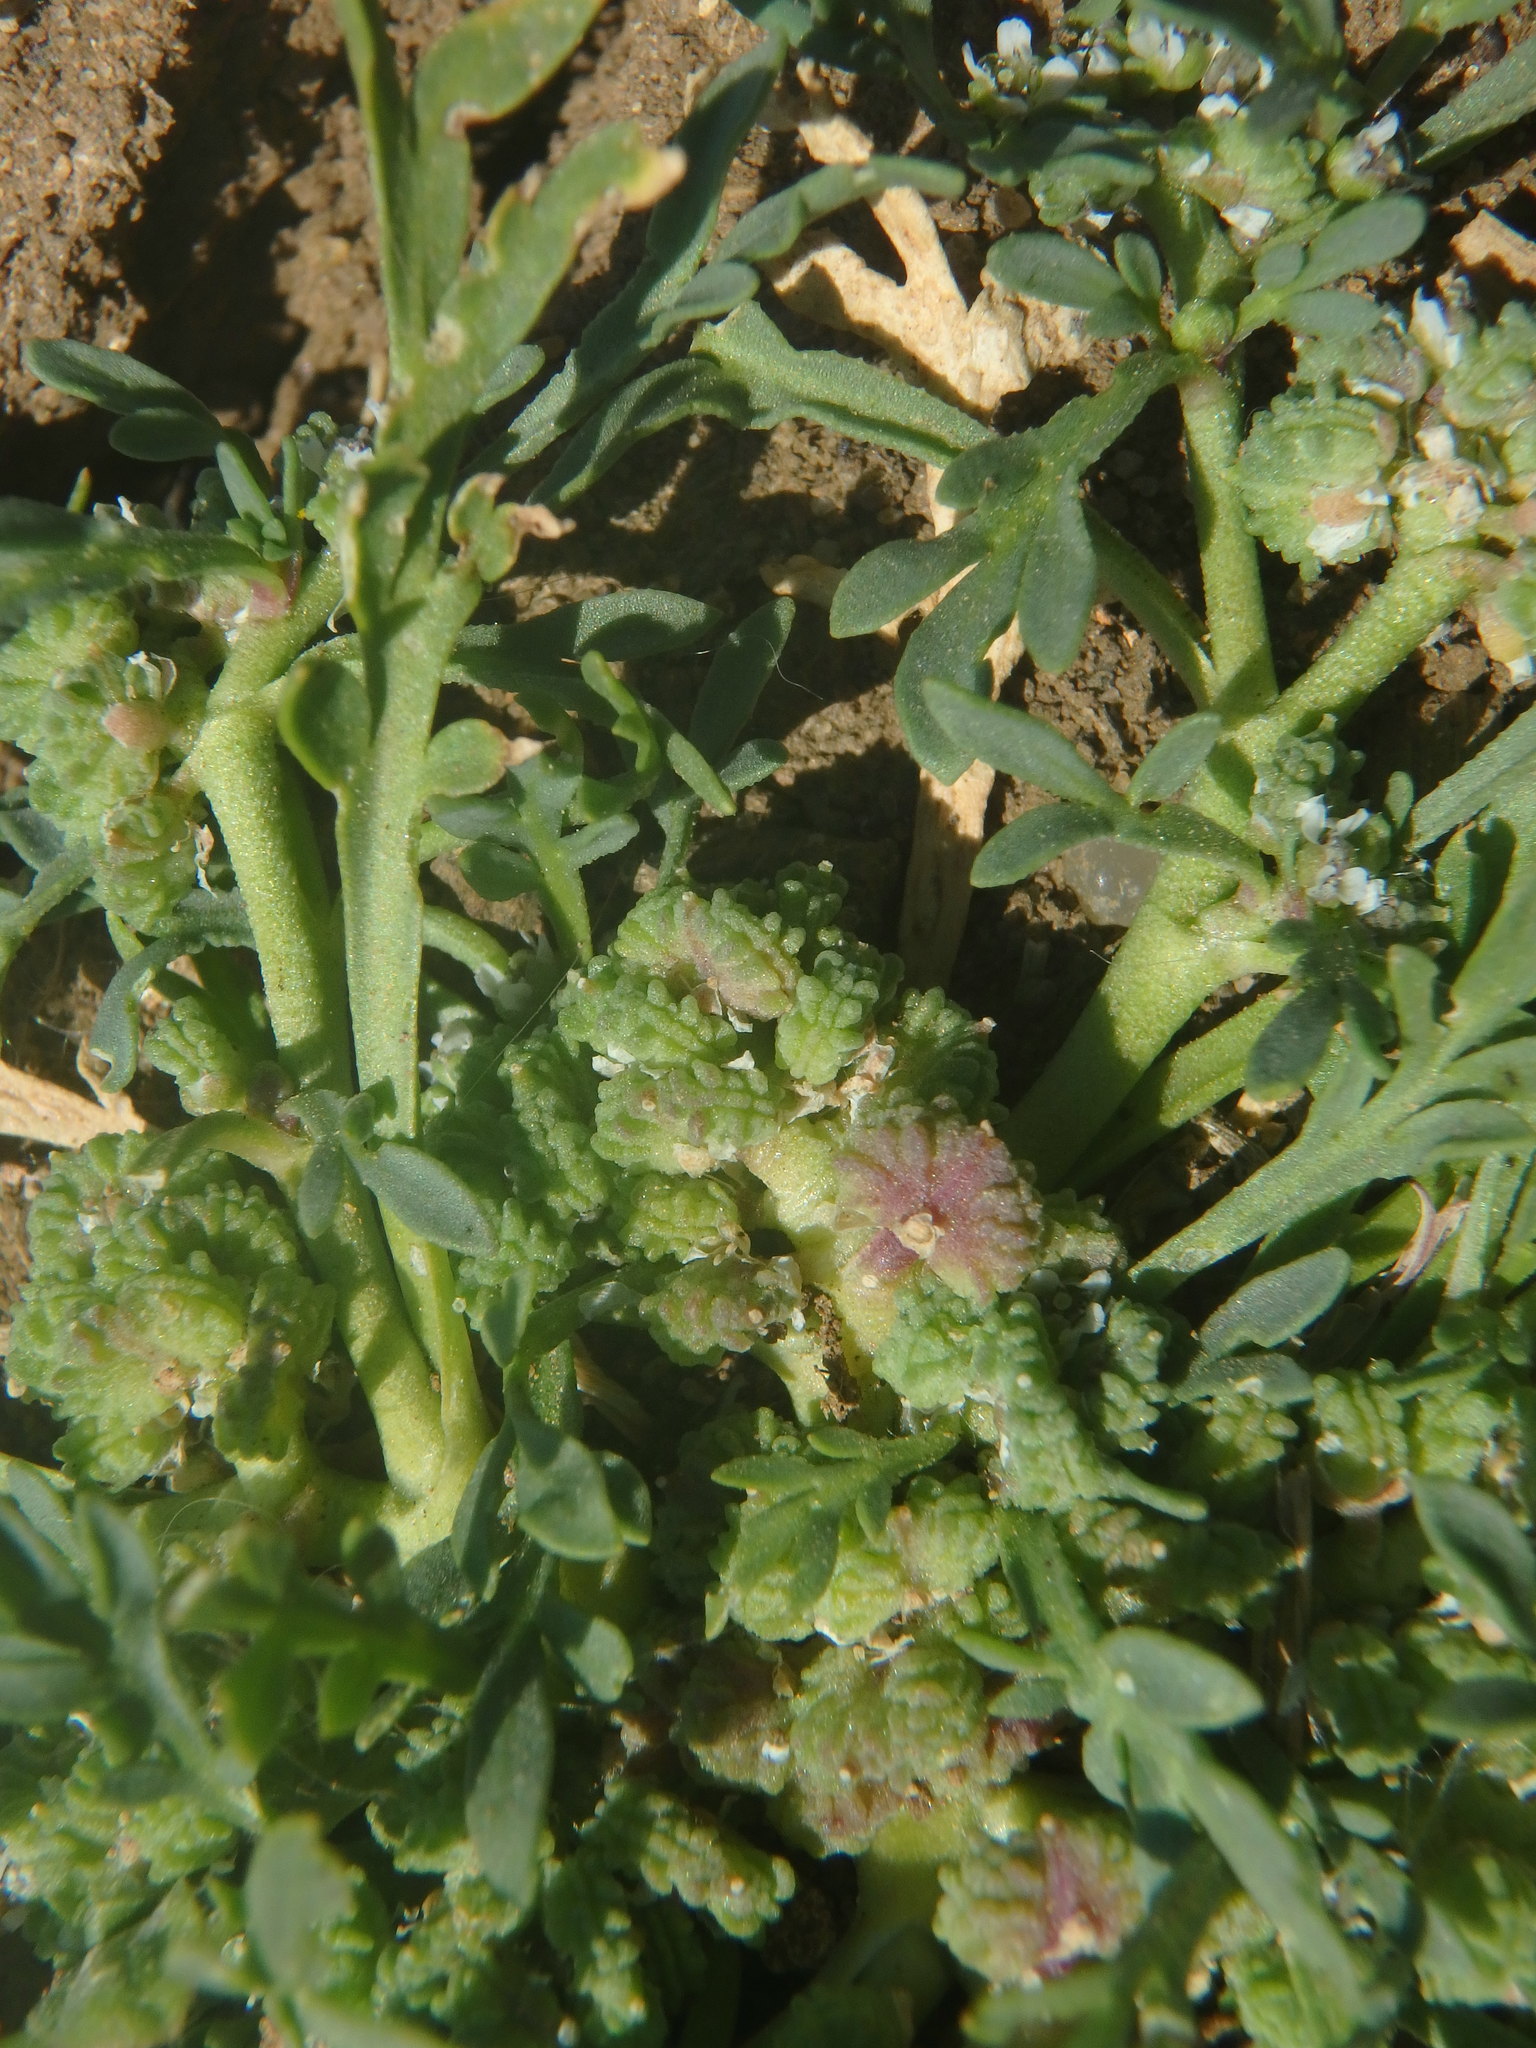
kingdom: Plantae
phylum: Tracheophyta
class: Magnoliopsida
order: Brassicales
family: Brassicaceae
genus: Lepidium
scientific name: Lepidium coronopus
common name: Greater swinecress
